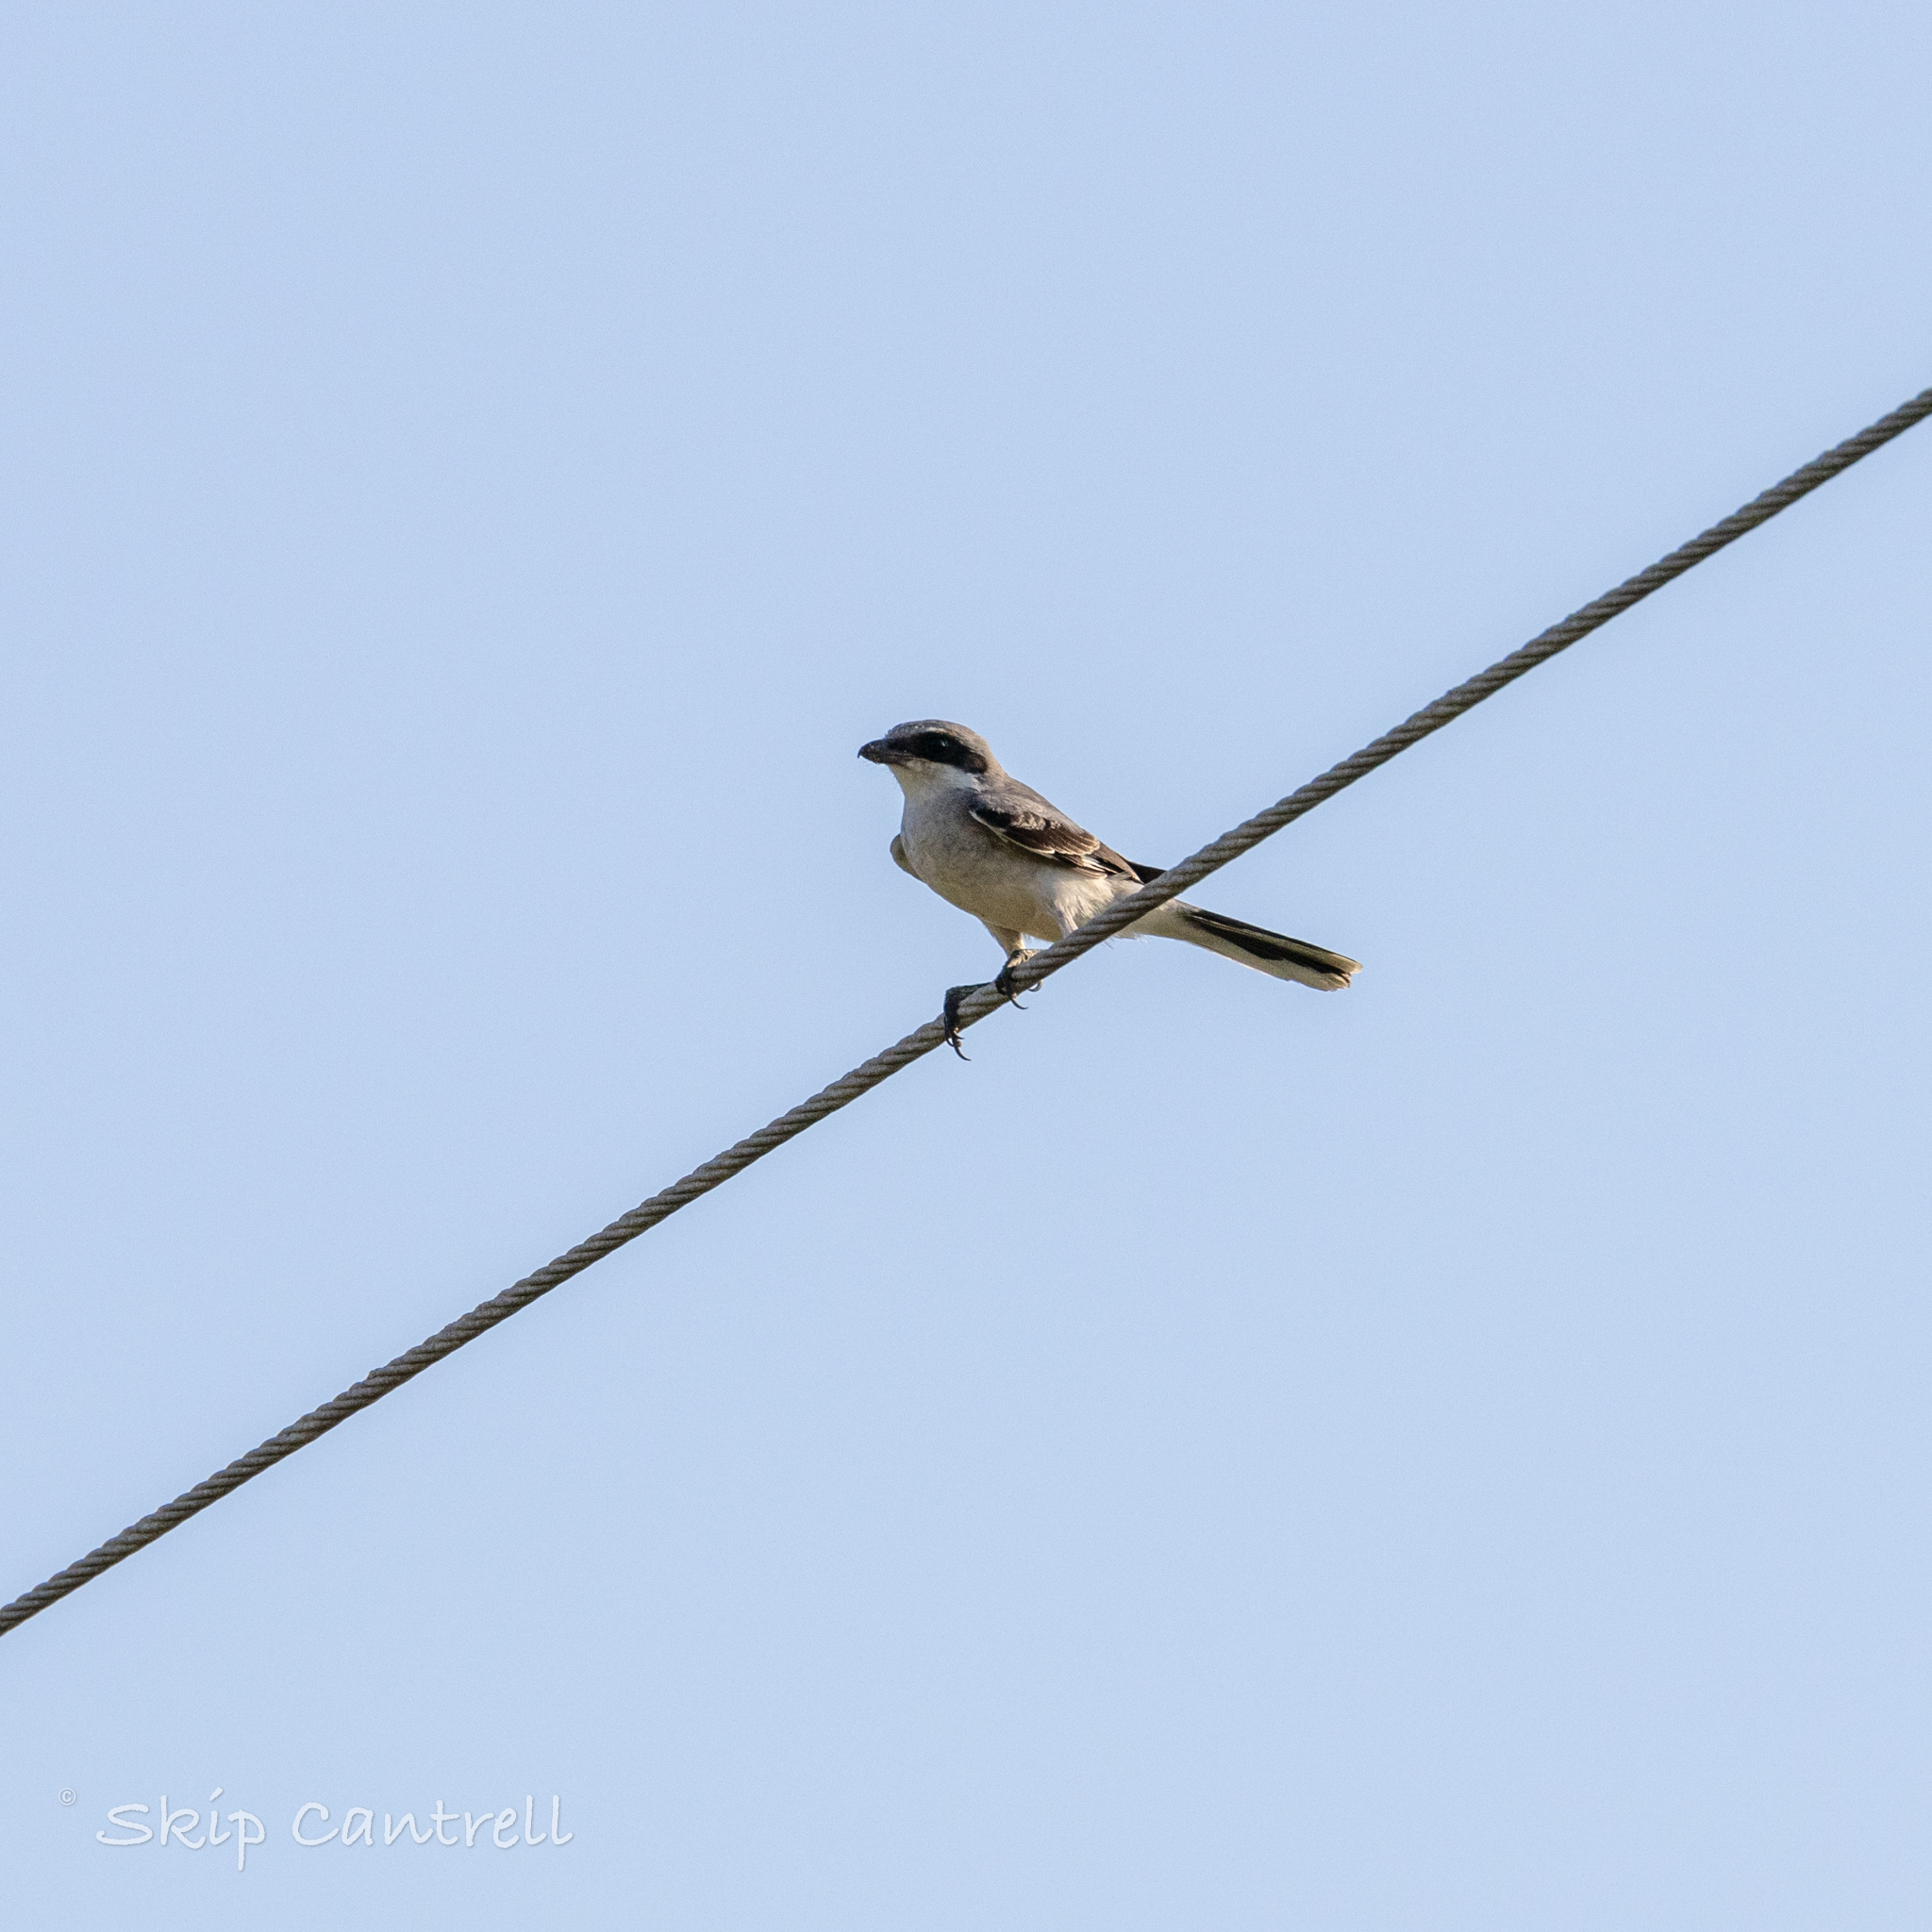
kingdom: Animalia
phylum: Chordata
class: Aves
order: Passeriformes
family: Laniidae
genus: Lanius
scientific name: Lanius ludovicianus
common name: Loggerhead shrike
